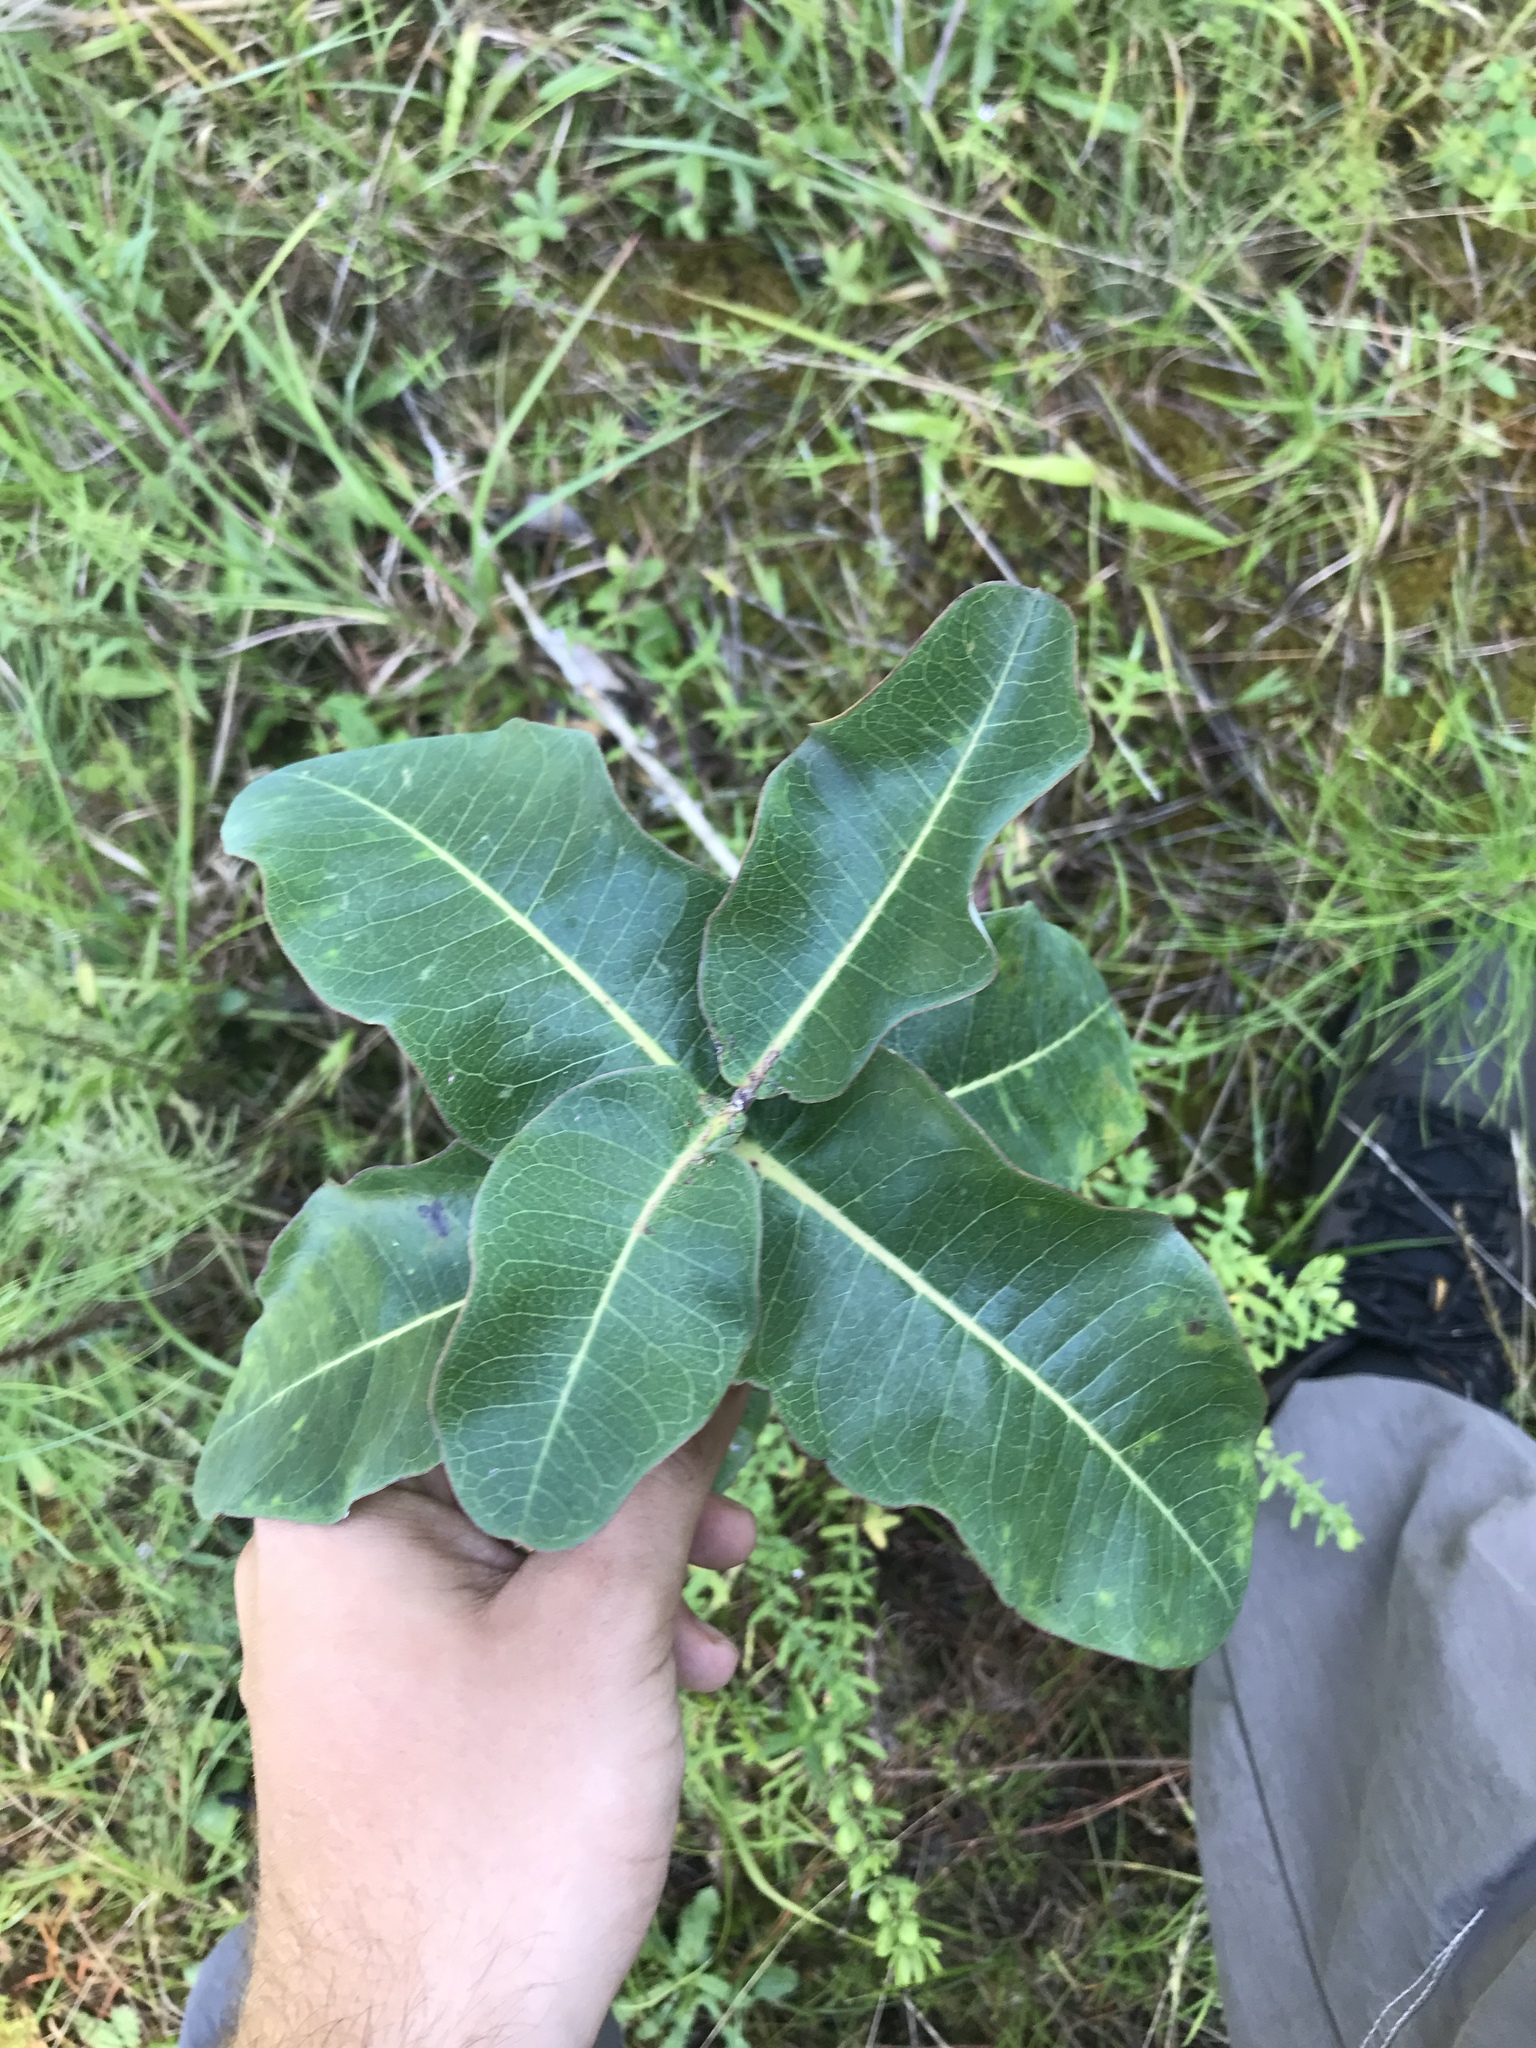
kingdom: Plantae
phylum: Tracheophyta
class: Magnoliopsida
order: Gentianales
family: Apocynaceae
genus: Asclepias
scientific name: Asclepias amplexicaulis
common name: Blunt-leaf milkweed
